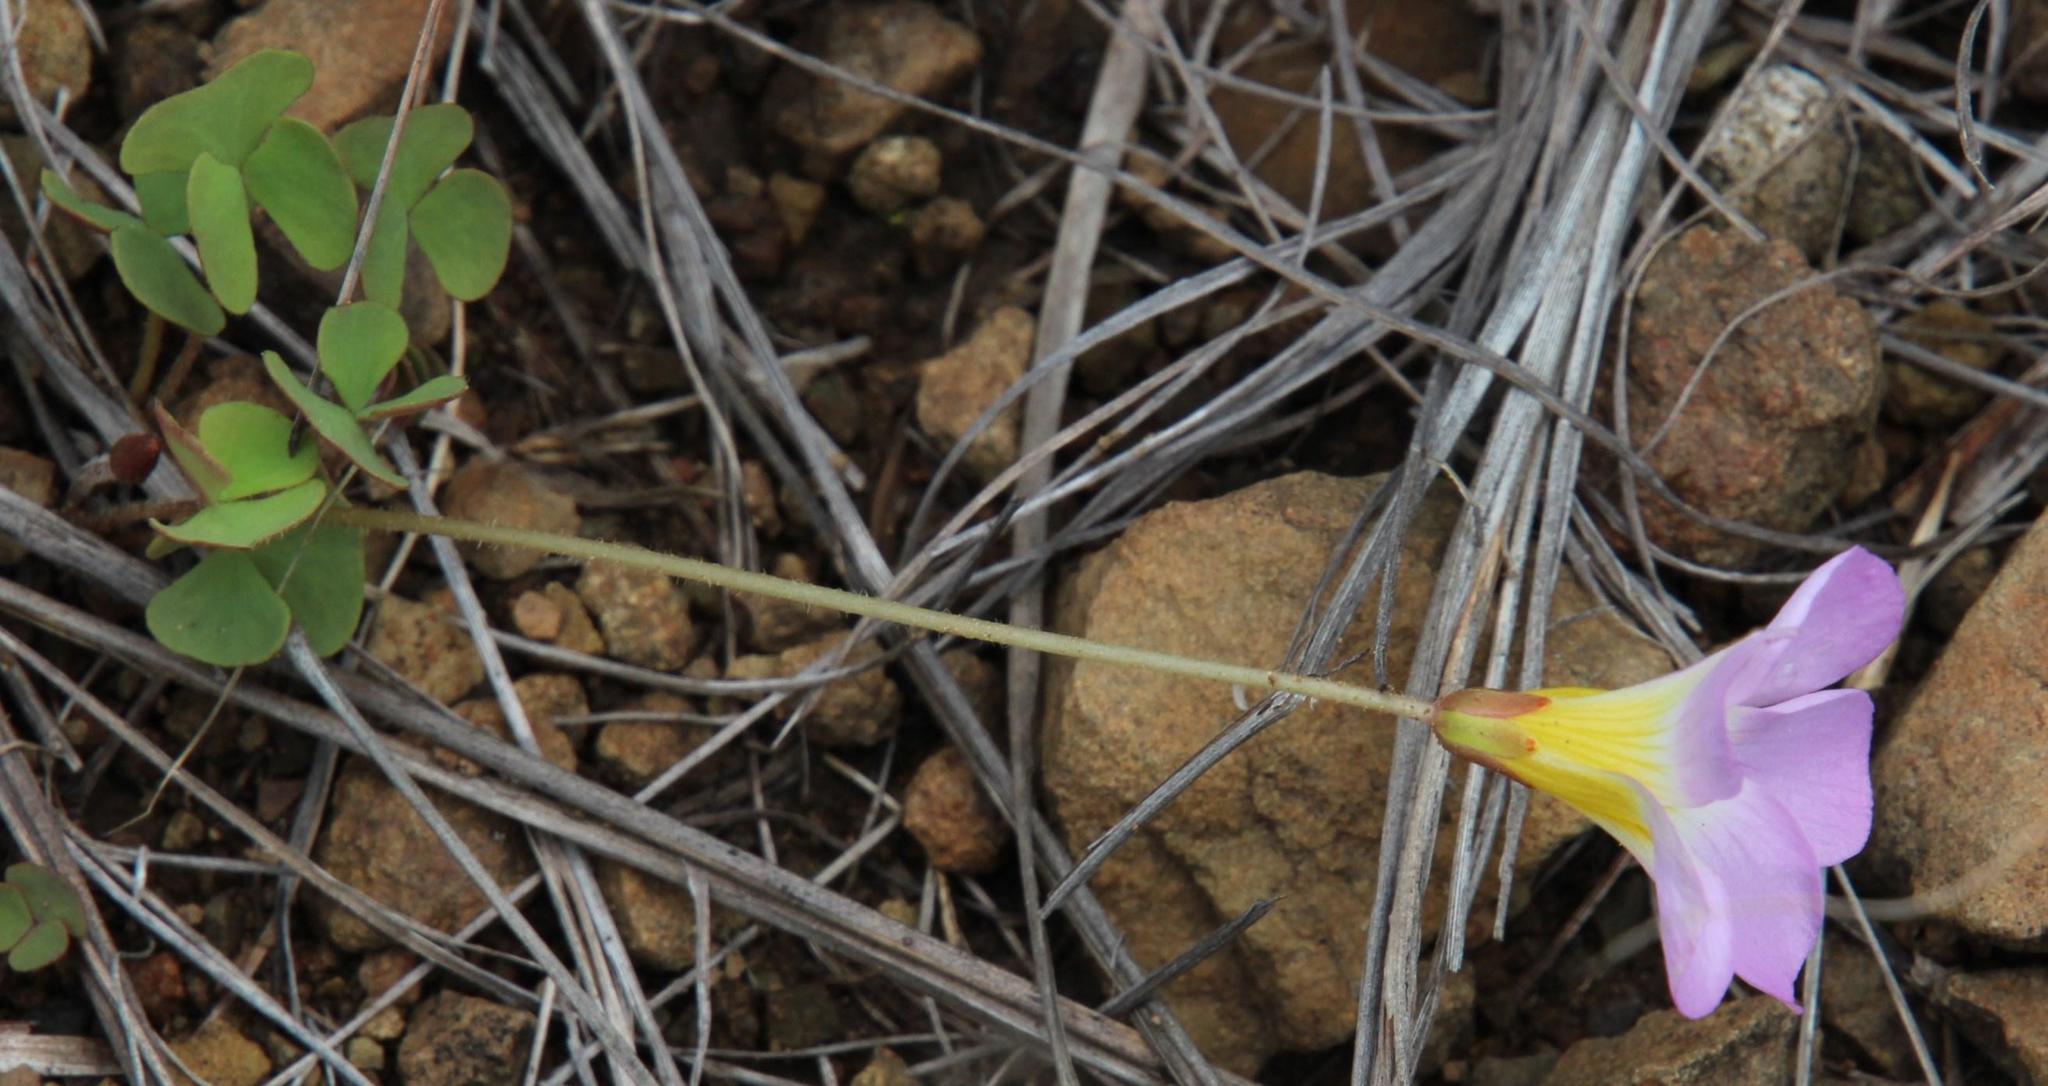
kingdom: Plantae
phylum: Tracheophyta
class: Magnoliopsida
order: Oxalidales
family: Oxalidaceae
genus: Oxalis
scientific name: Oxalis obliquifolia
